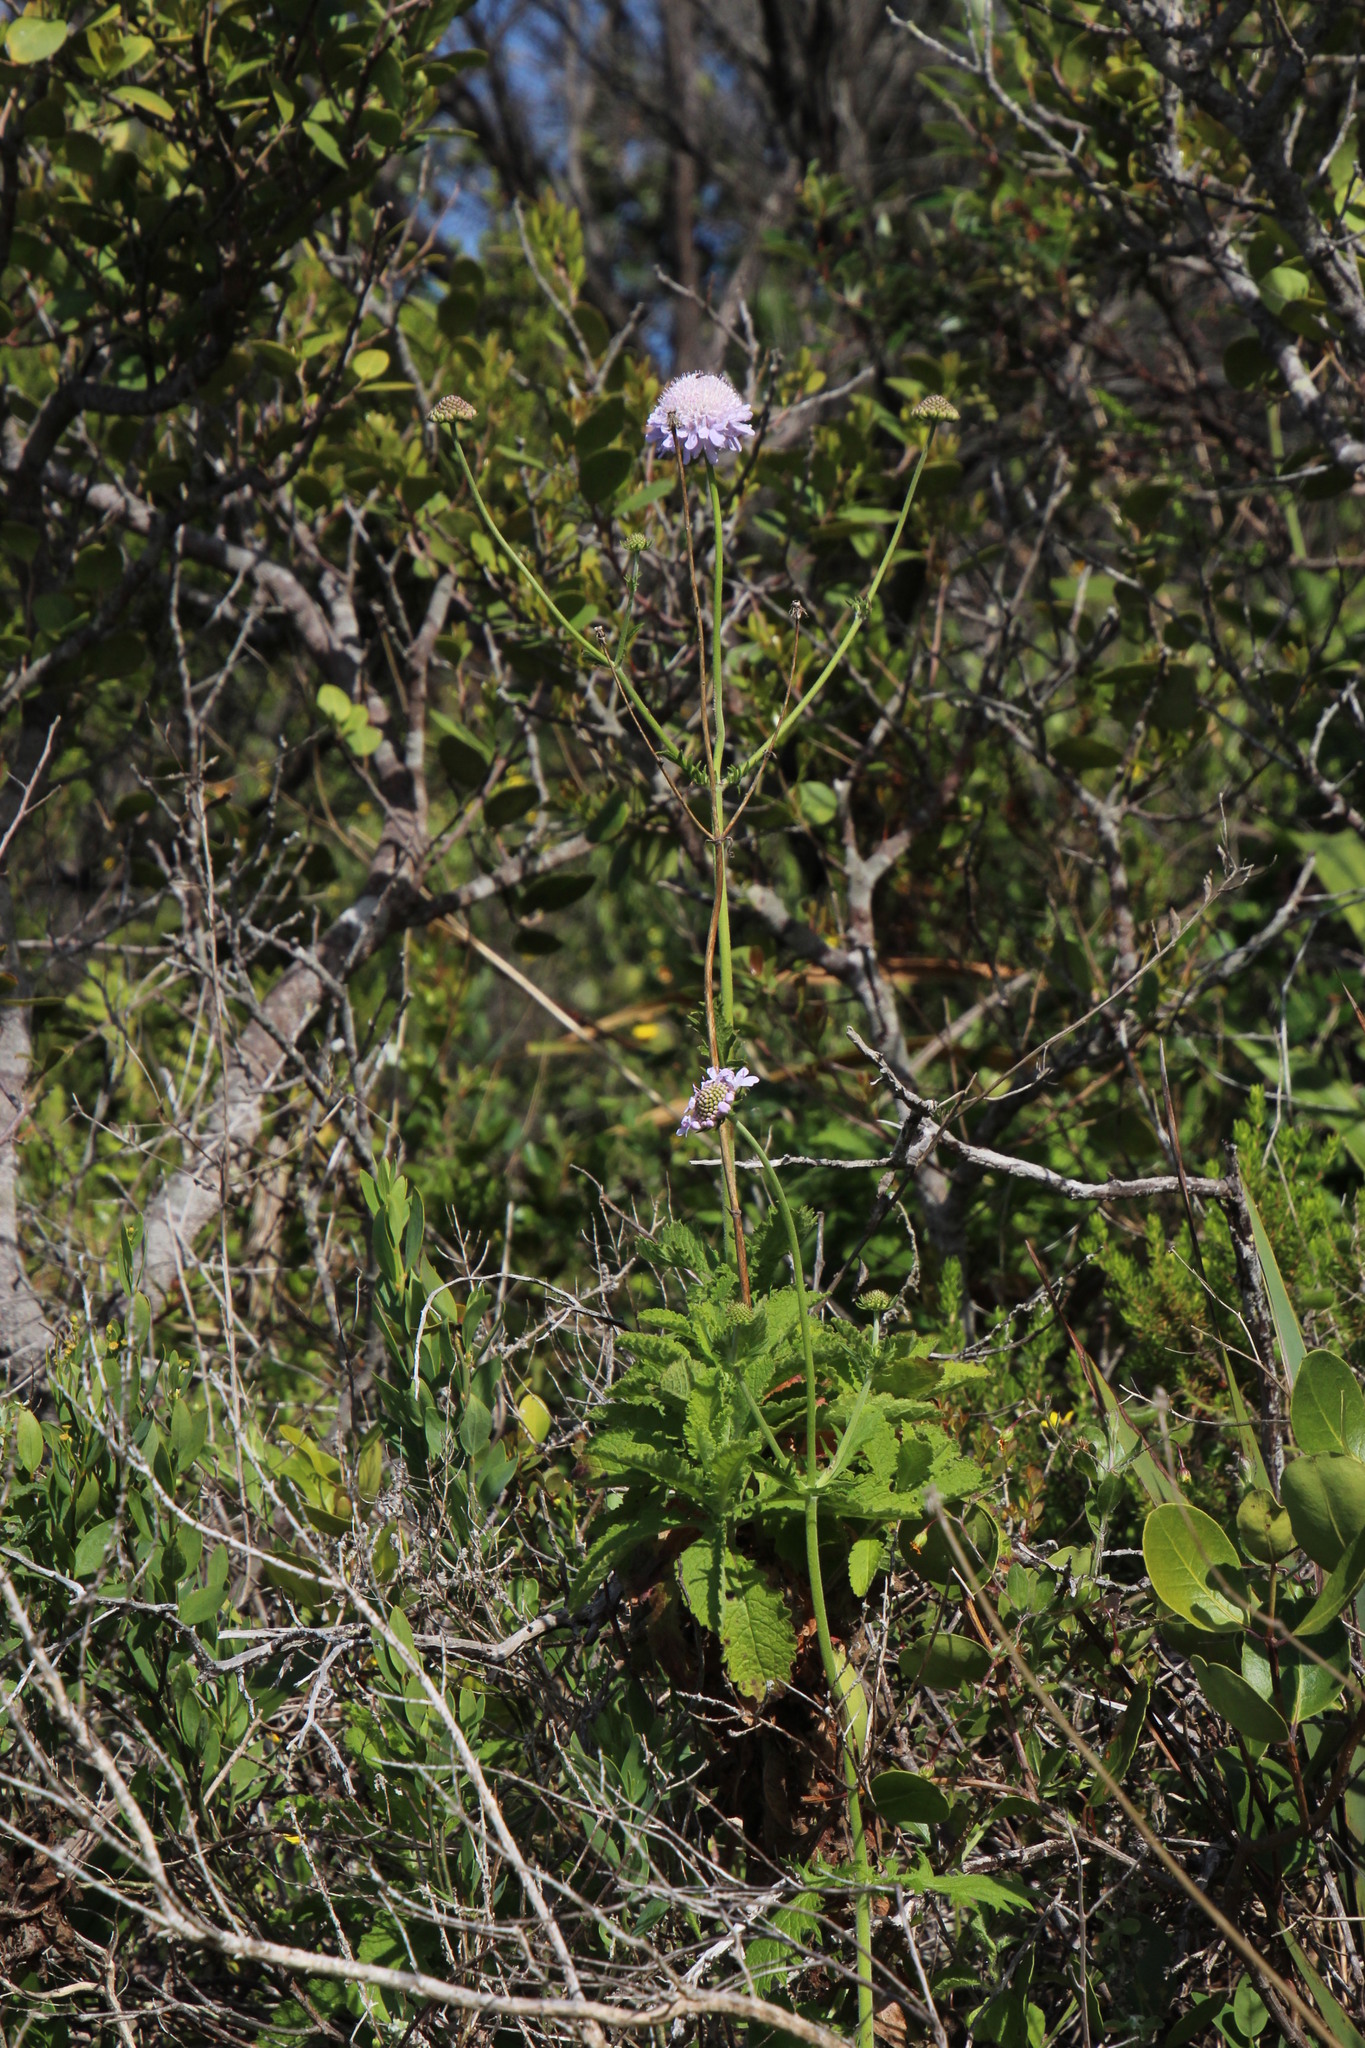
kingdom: Plantae
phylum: Tracheophyta
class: Magnoliopsida
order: Dipsacales
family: Caprifoliaceae
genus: Scabiosa
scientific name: Scabiosa africana
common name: Cape scabious
